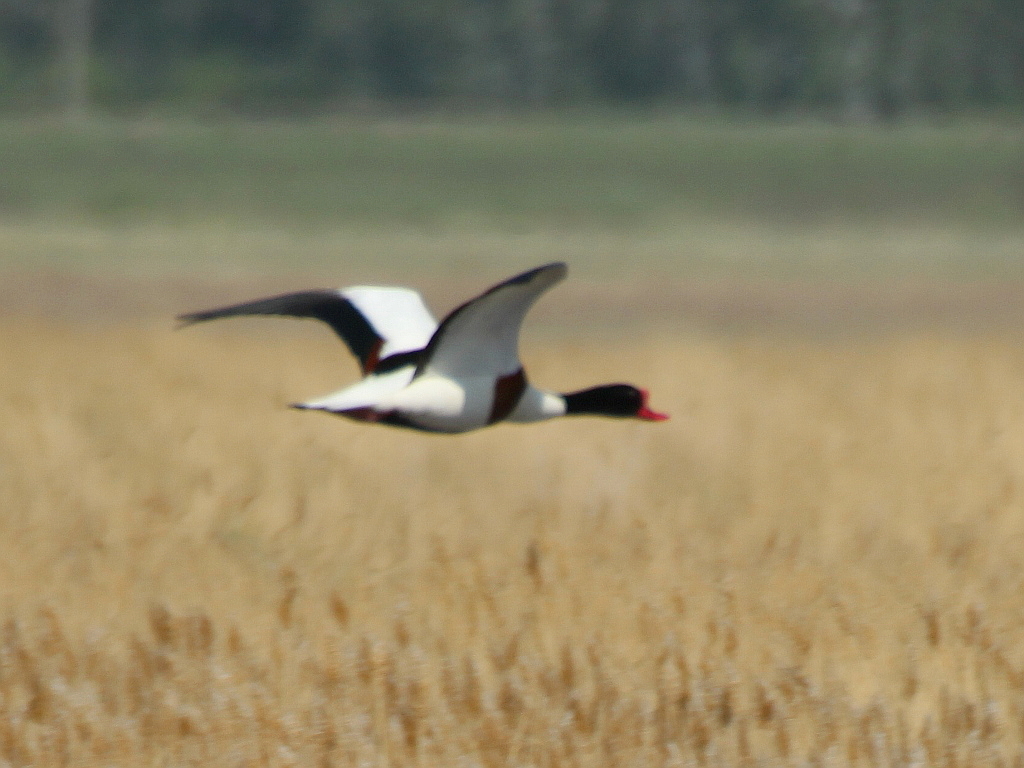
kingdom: Animalia
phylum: Chordata
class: Aves
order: Anseriformes
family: Anatidae
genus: Tadorna
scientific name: Tadorna tadorna
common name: Common shelduck
